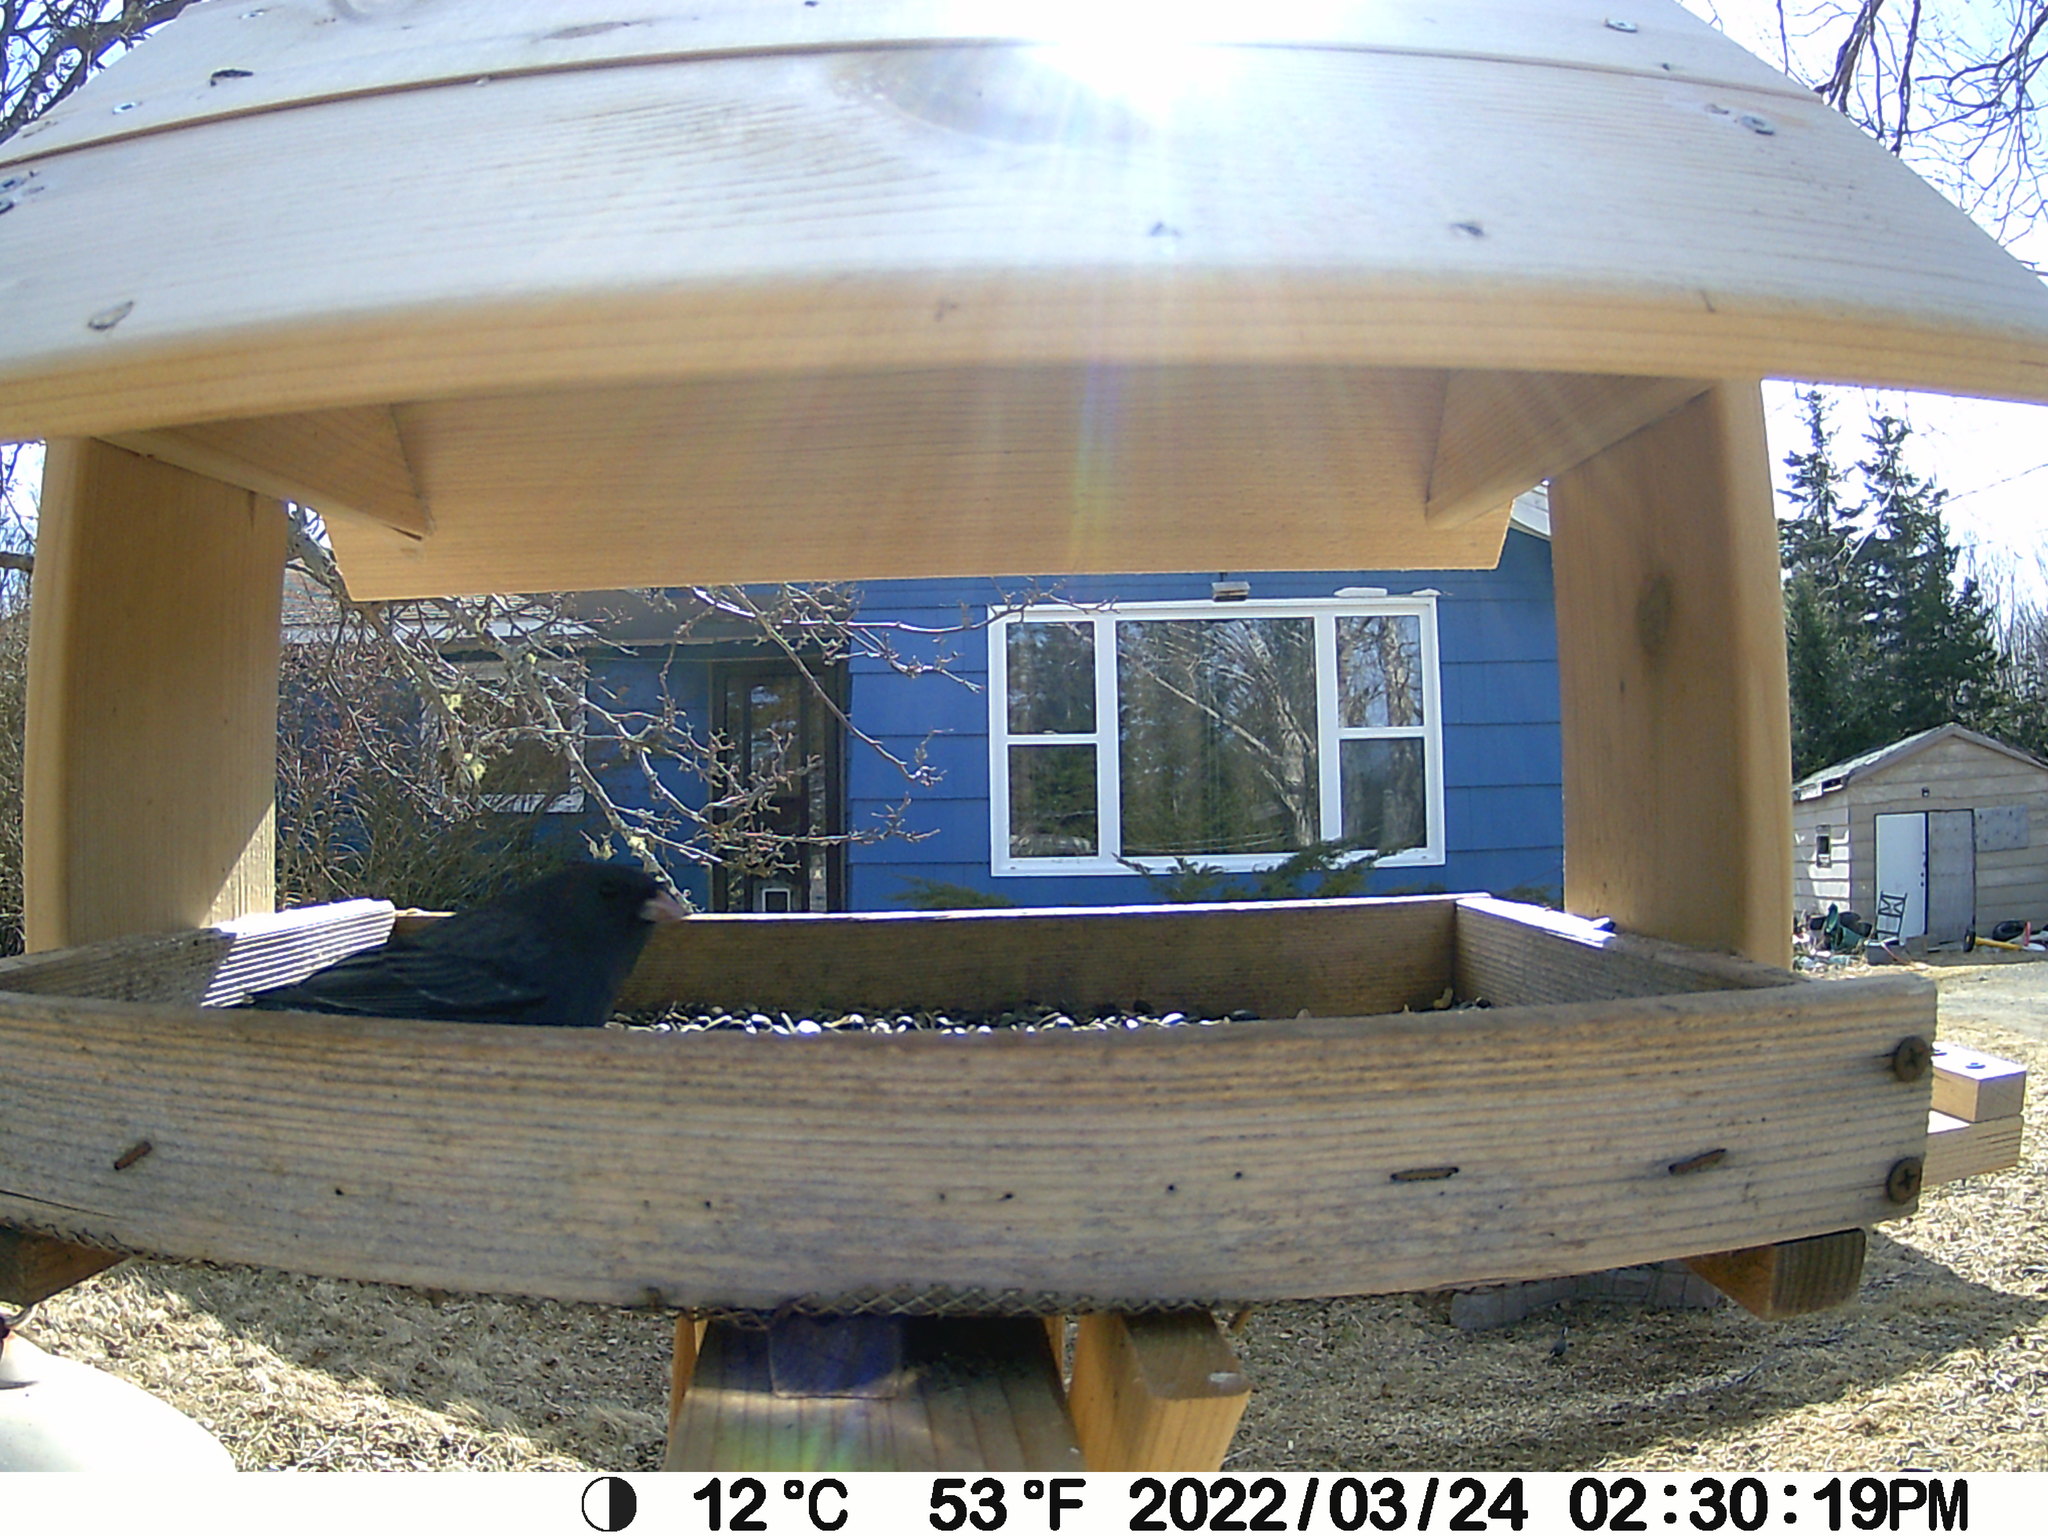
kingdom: Animalia
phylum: Chordata
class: Aves
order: Passeriformes
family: Passerellidae
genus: Junco
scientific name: Junco hyemalis
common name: Dark-eyed junco
